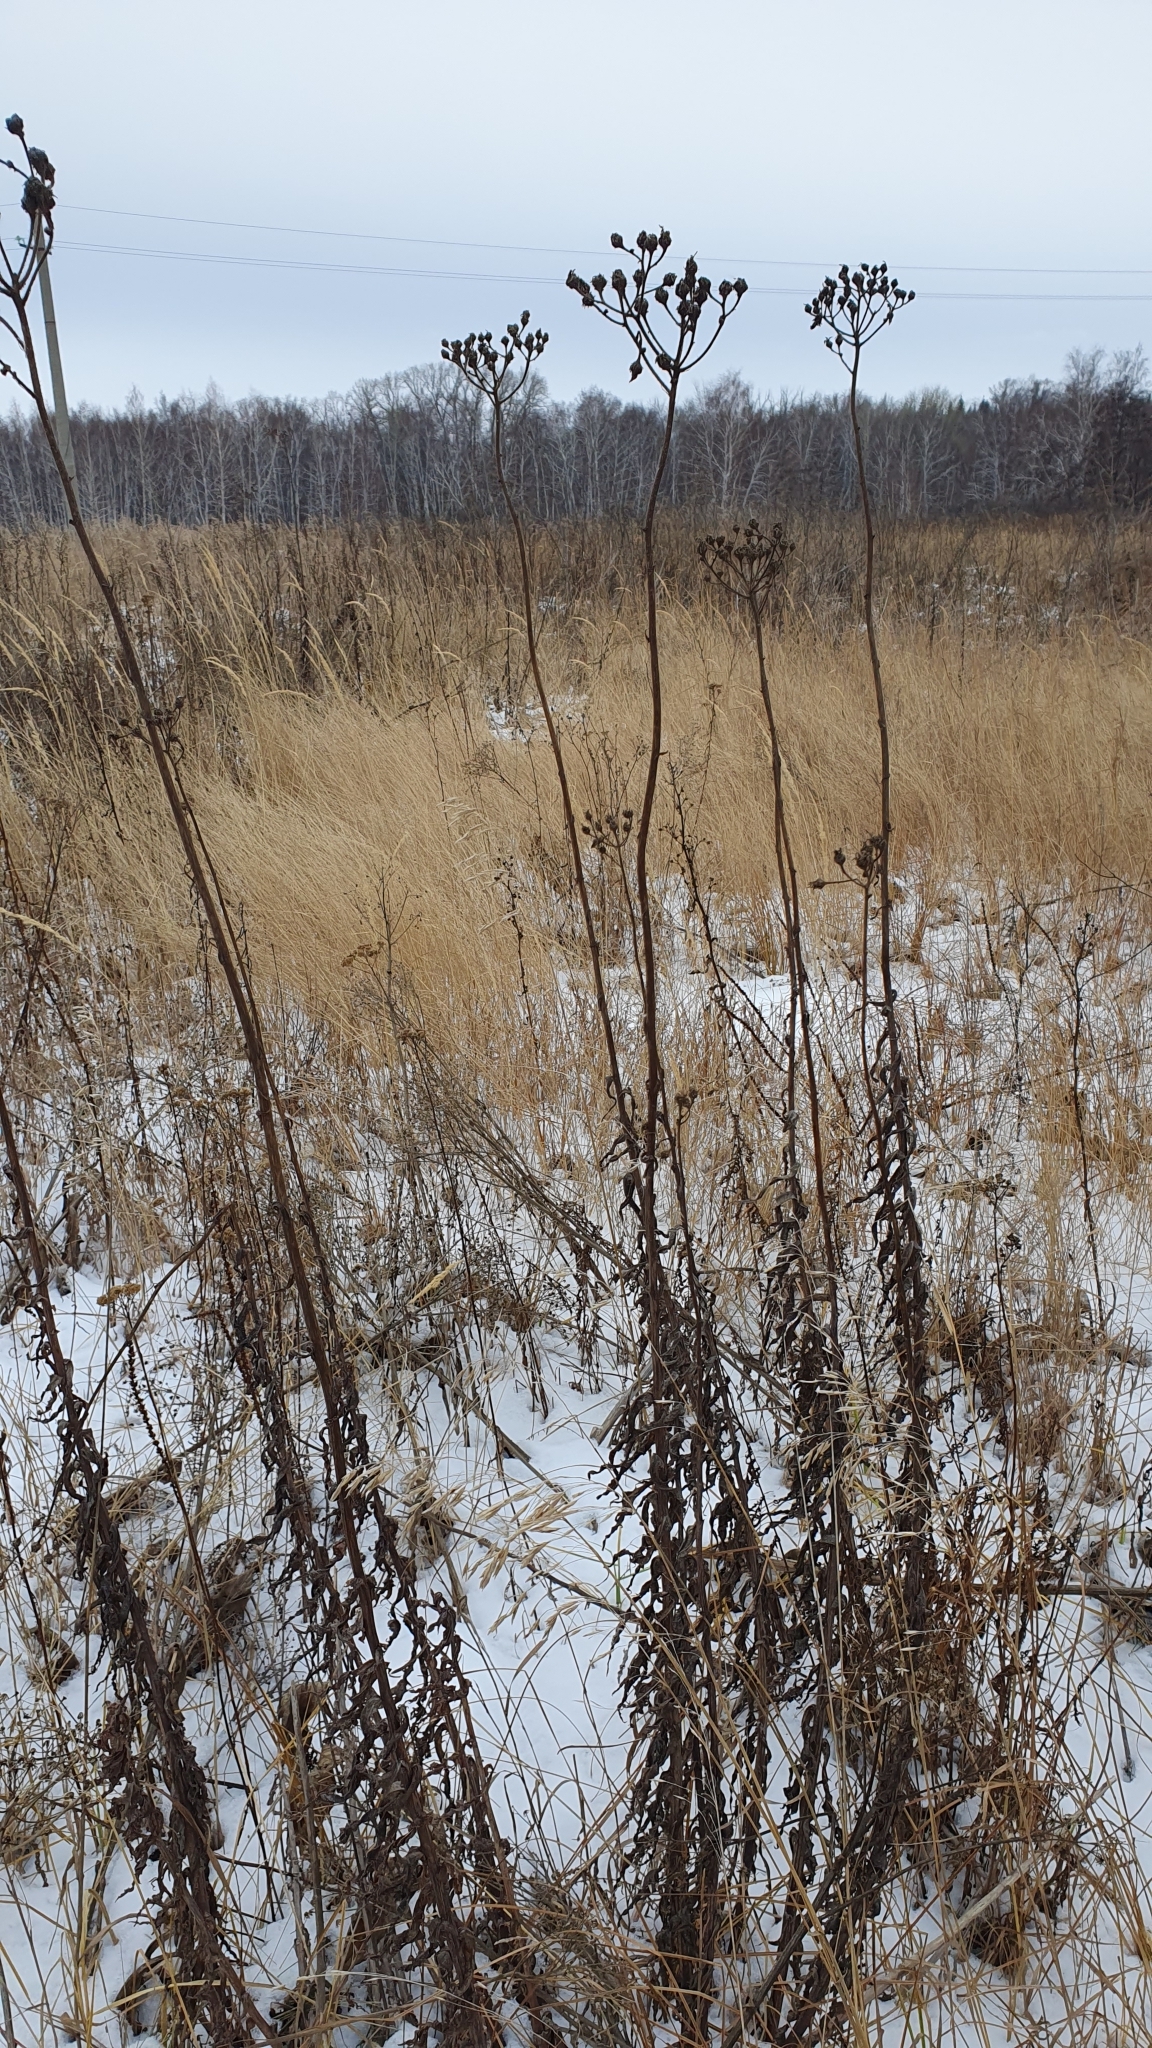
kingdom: Plantae
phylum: Tracheophyta
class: Magnoliopsida
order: Asterales
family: Asteraceae
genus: Sonchus
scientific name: Sonchus palustris
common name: Marsh sow-thistle
